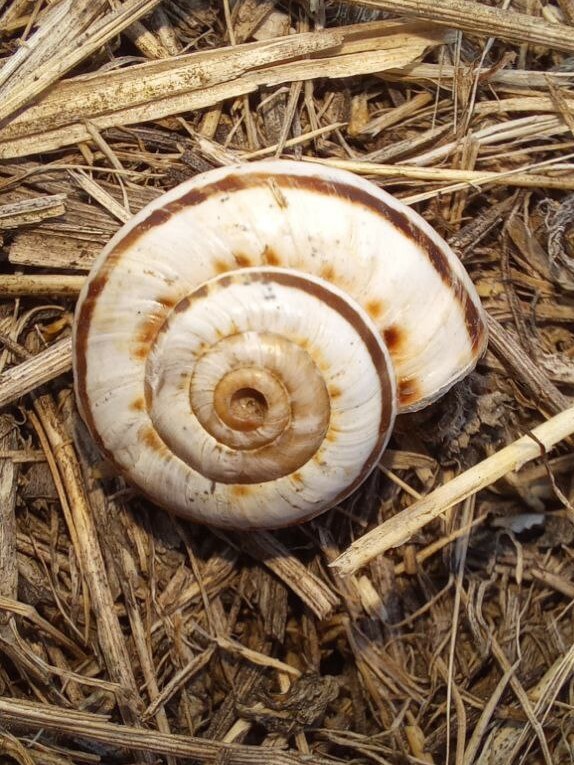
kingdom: Animalia
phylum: Mollusca
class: Gastropoda
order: Stylommatophora
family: Geomitridae
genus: Xeropicta
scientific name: Xeropicta derbentina
